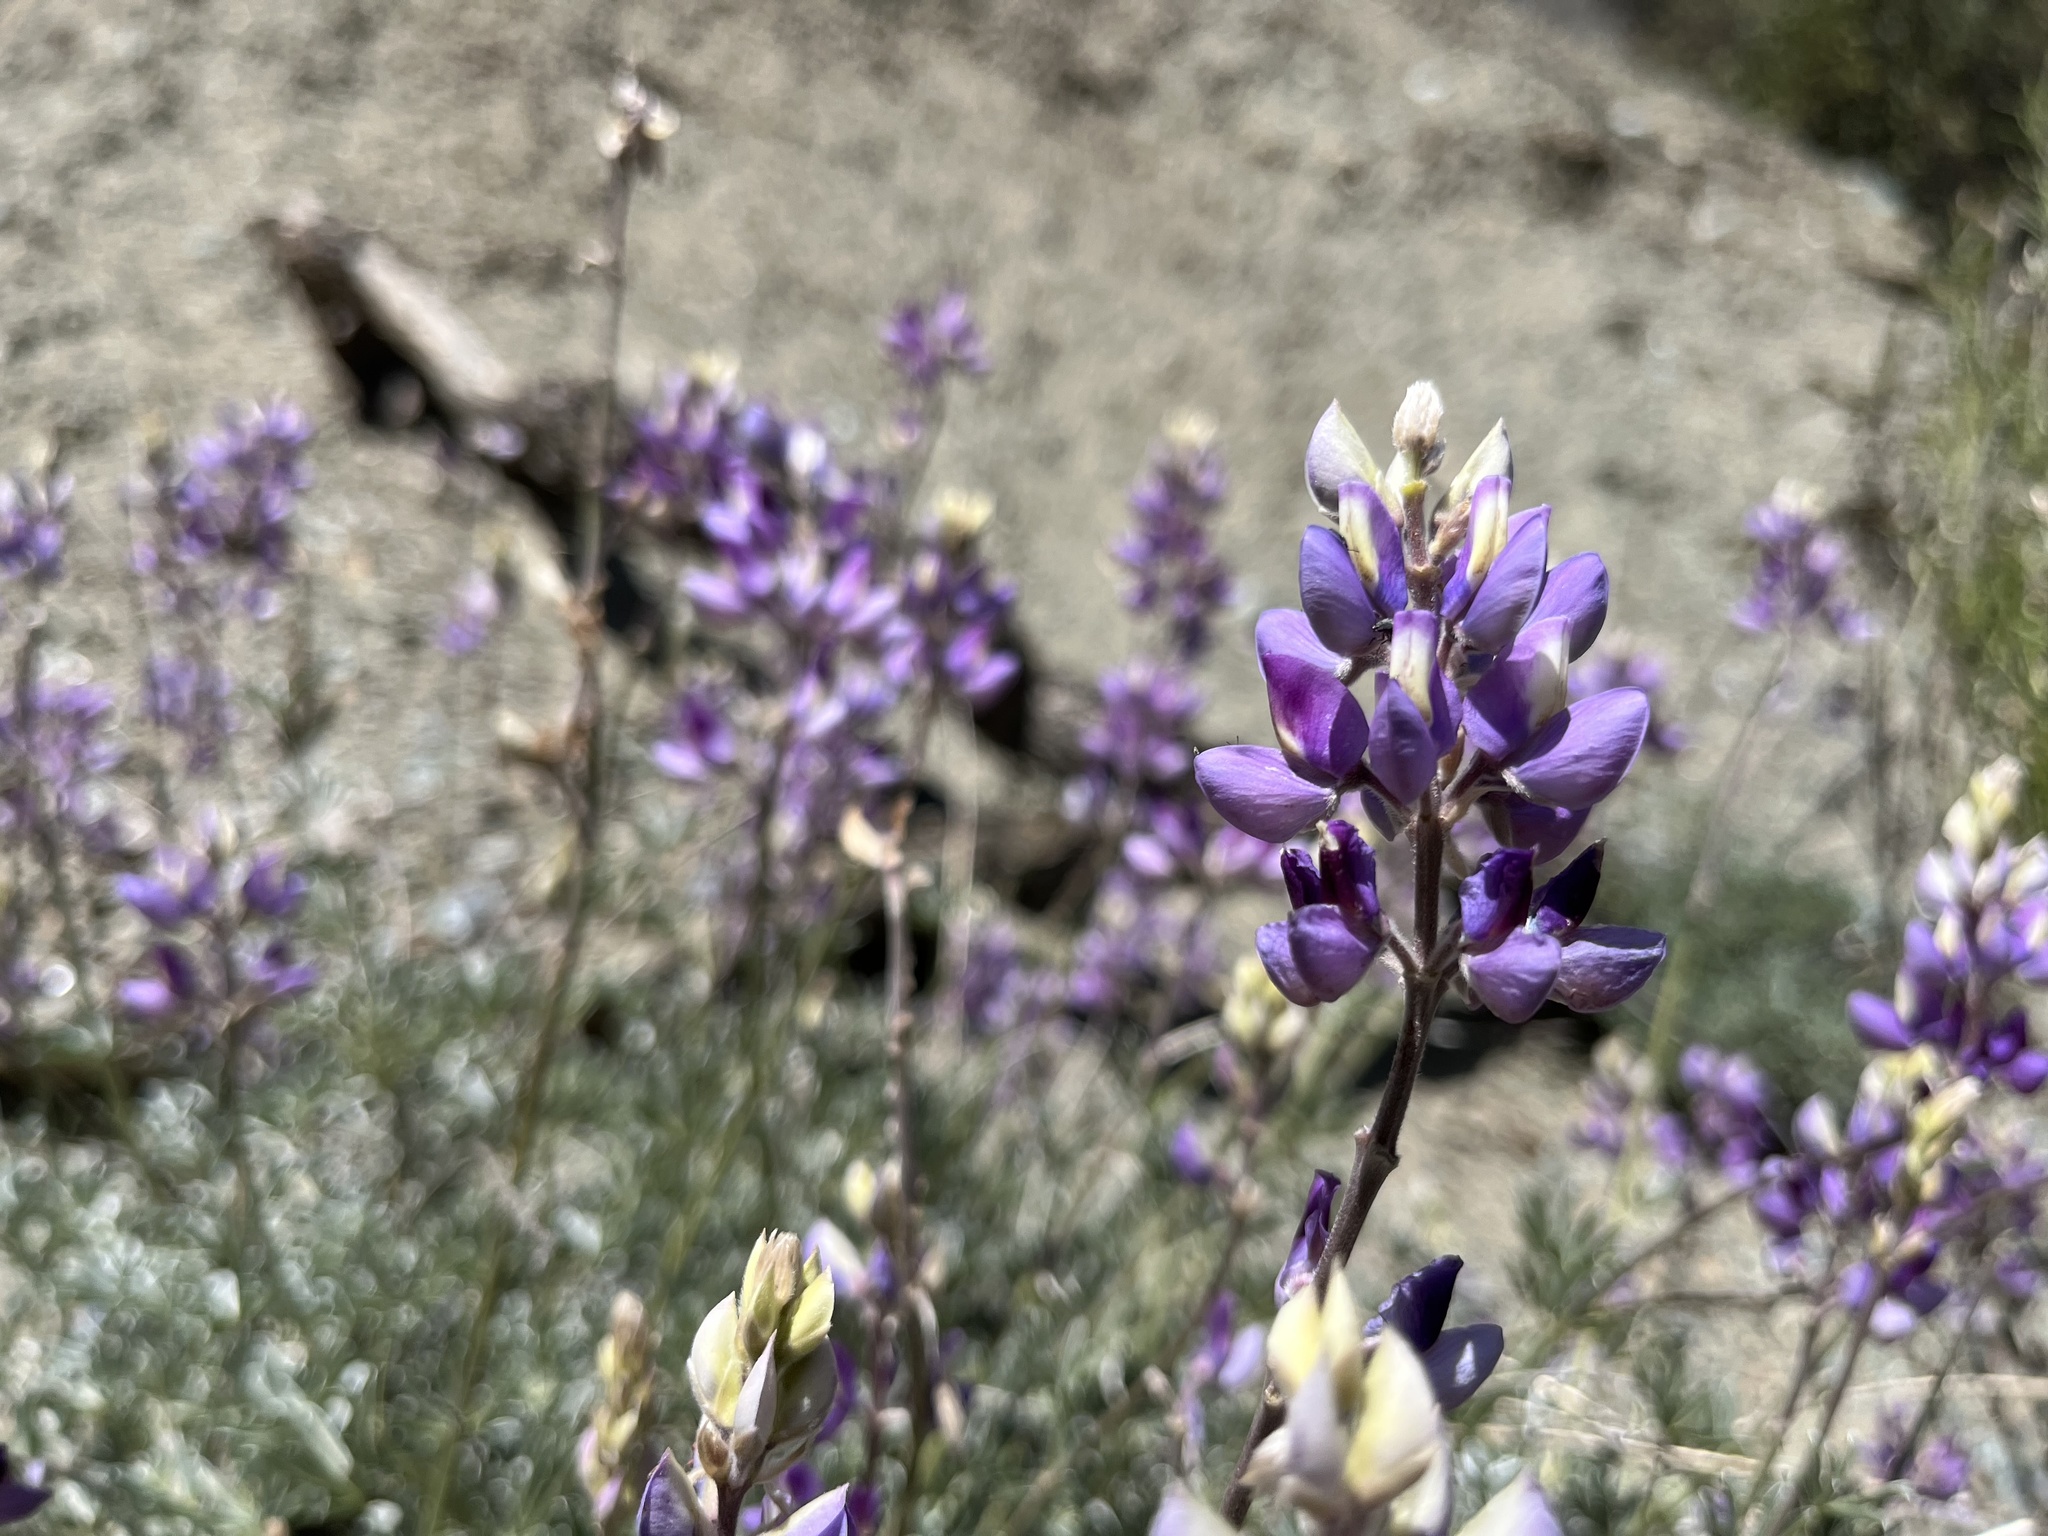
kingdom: Plantae
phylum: Tracheophyta
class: Magnoliopsida
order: Fabales
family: Fabaceae
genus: Lupinus
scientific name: Lupinus albifrons
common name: Foothill lupine
